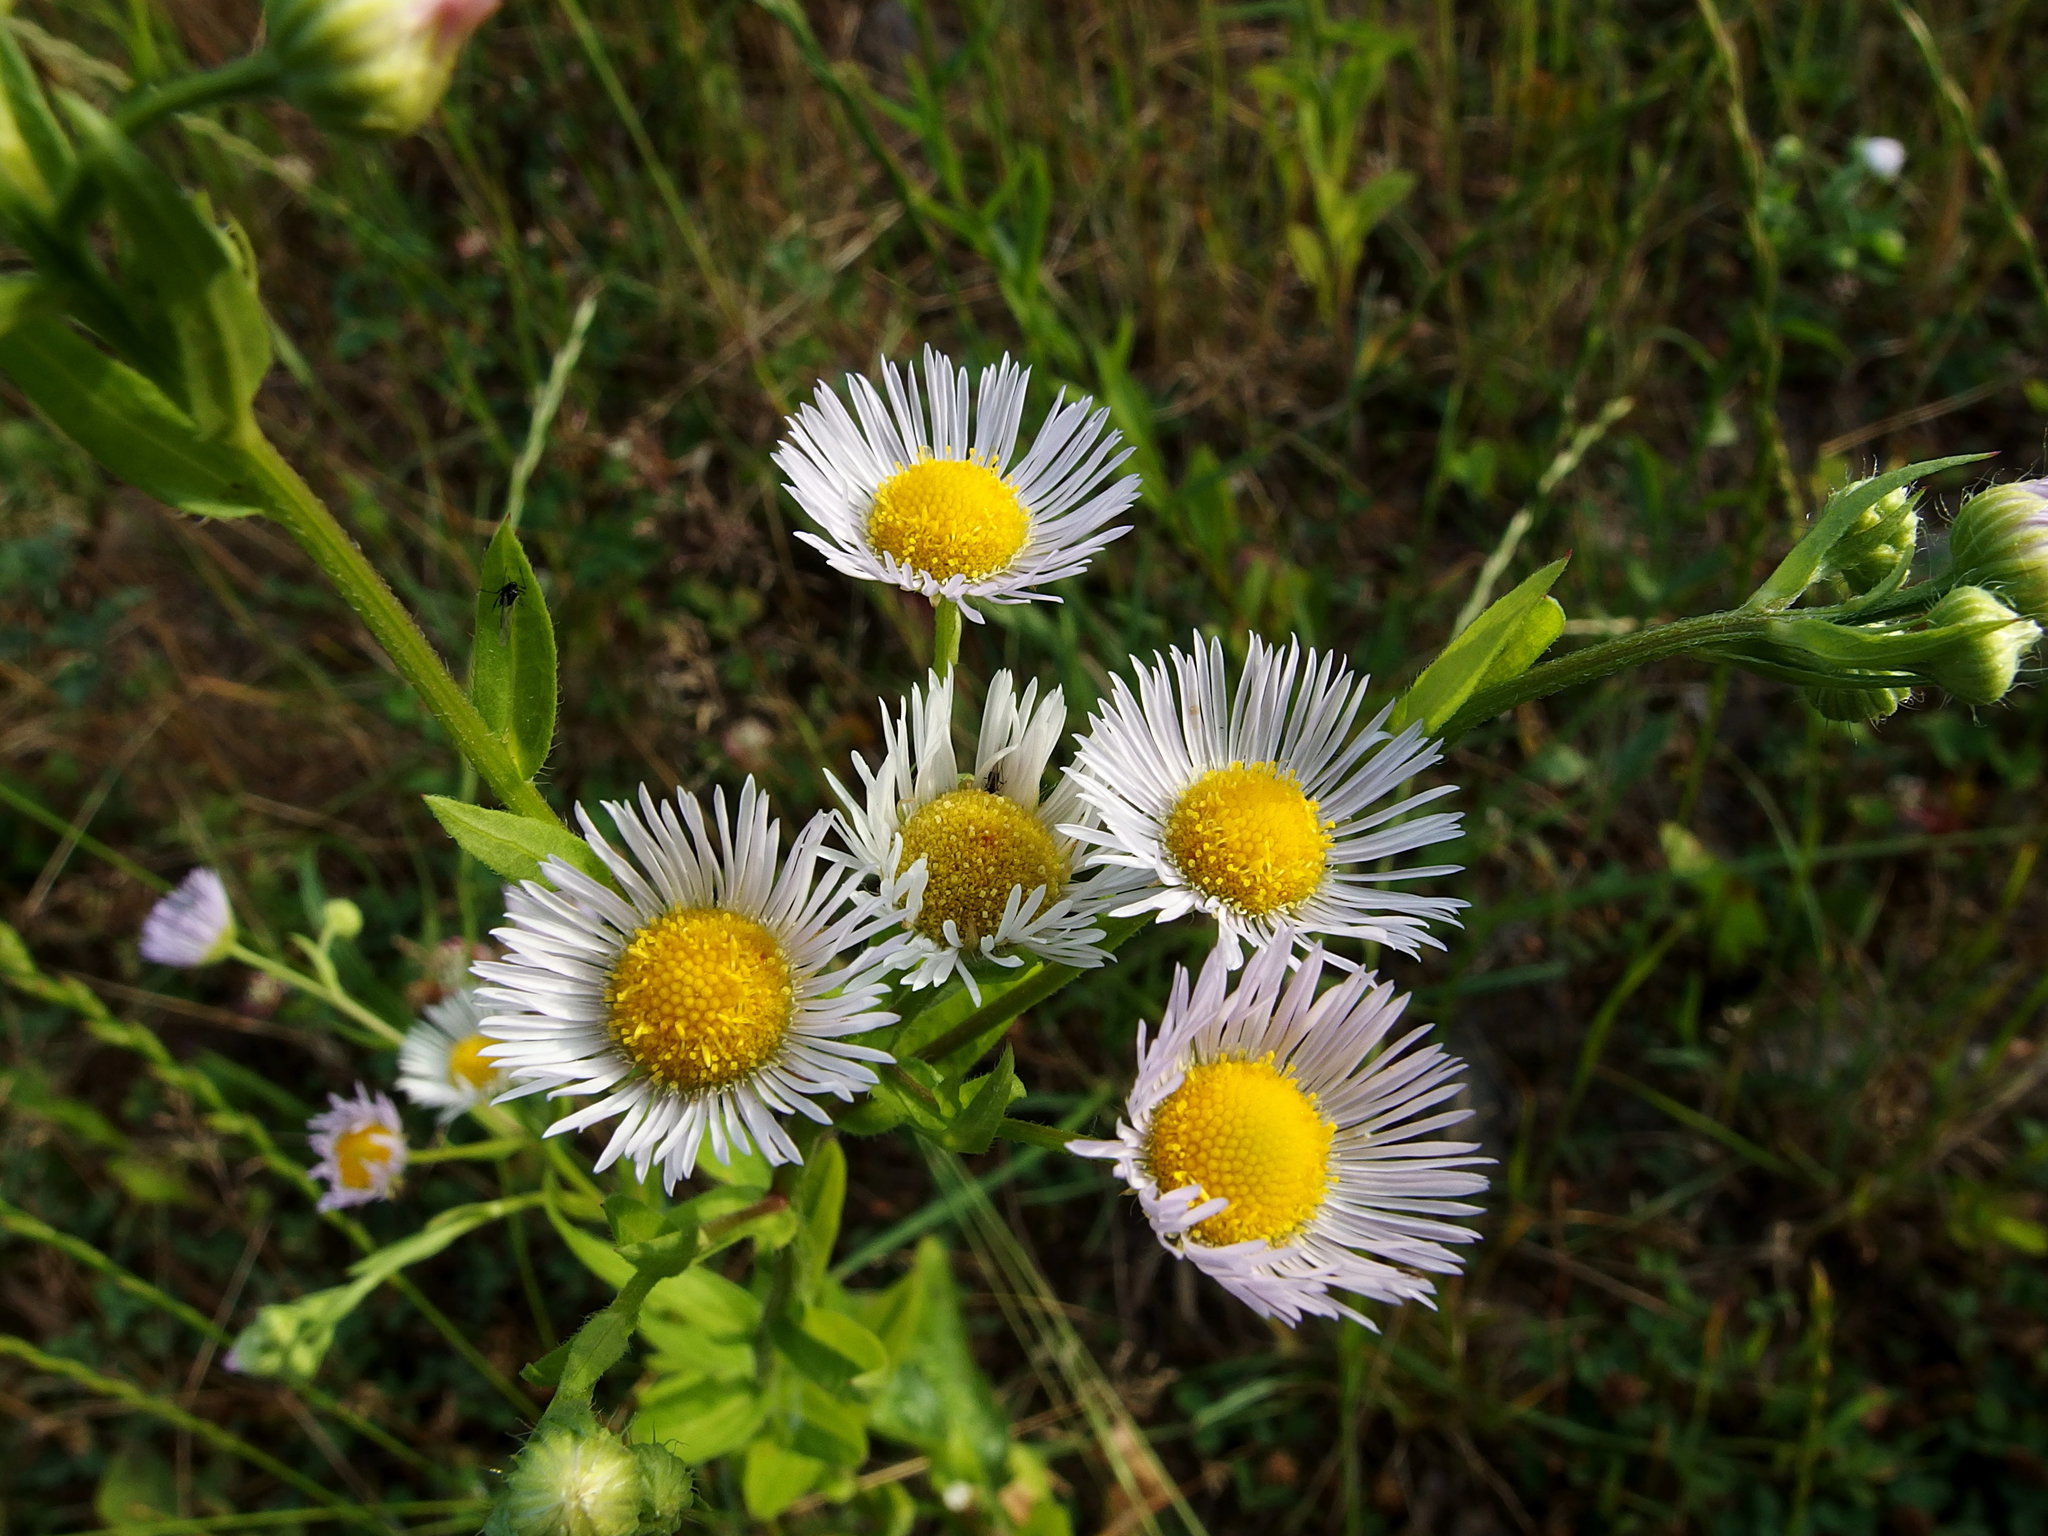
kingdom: Plantae
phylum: Tracheophyta
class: Magnoliopsida
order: Asterales
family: Asteraceae
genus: Erigeron
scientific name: Erigeron annuus
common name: Tall fleabane
